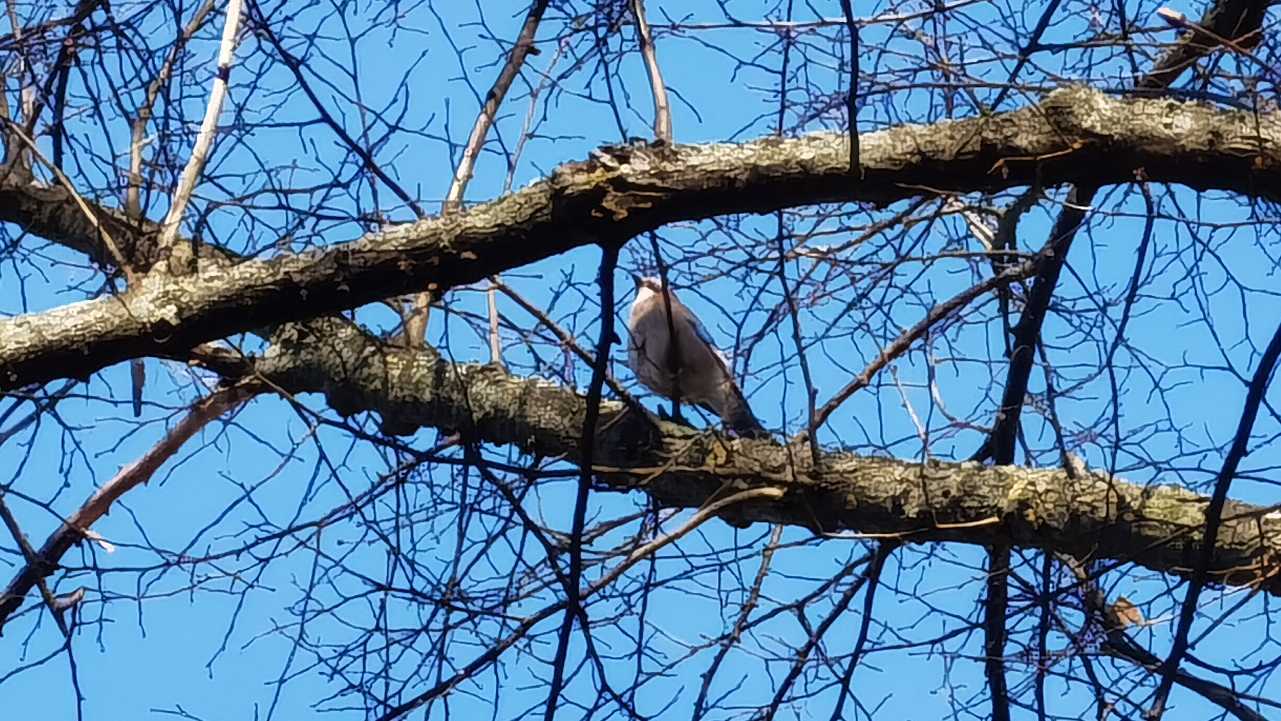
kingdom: Animalia
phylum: Chordata
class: Aves
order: Passeriformes
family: Corvidae
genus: Garrulus
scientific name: Garrulus glandarius
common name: Eurasian jay
